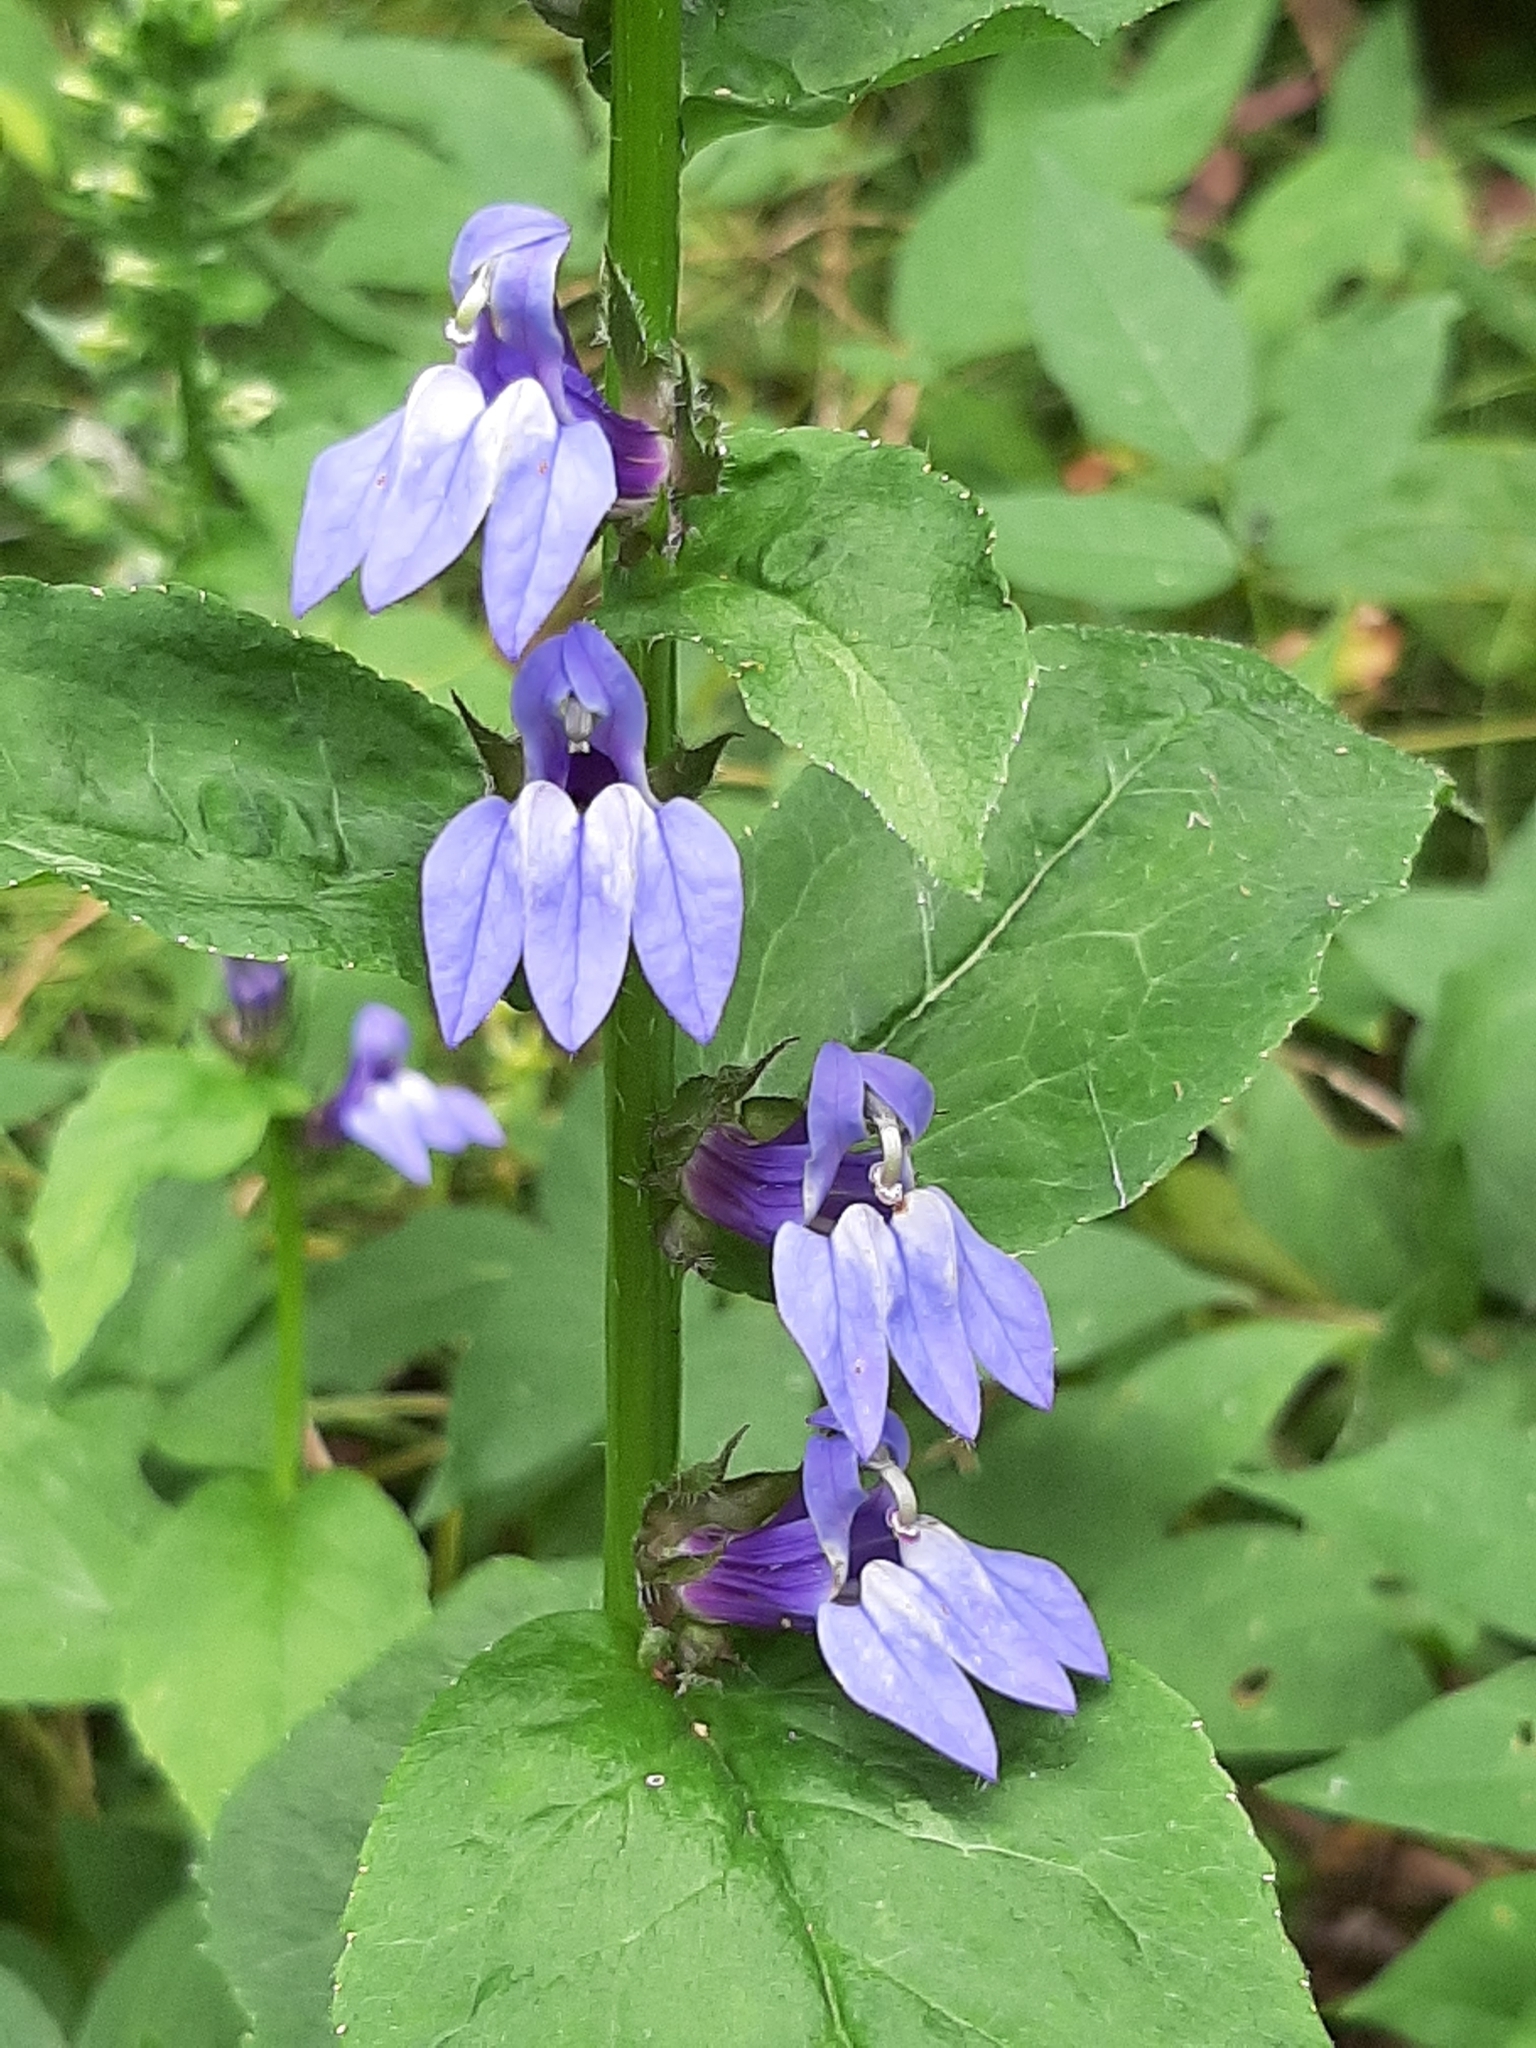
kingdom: Plantae
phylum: Tracheophyta
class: Magnoliopsida
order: Asterales
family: Campanulaceae
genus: Lobelia
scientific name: Lobelia siphilitica
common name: Great lobelia
